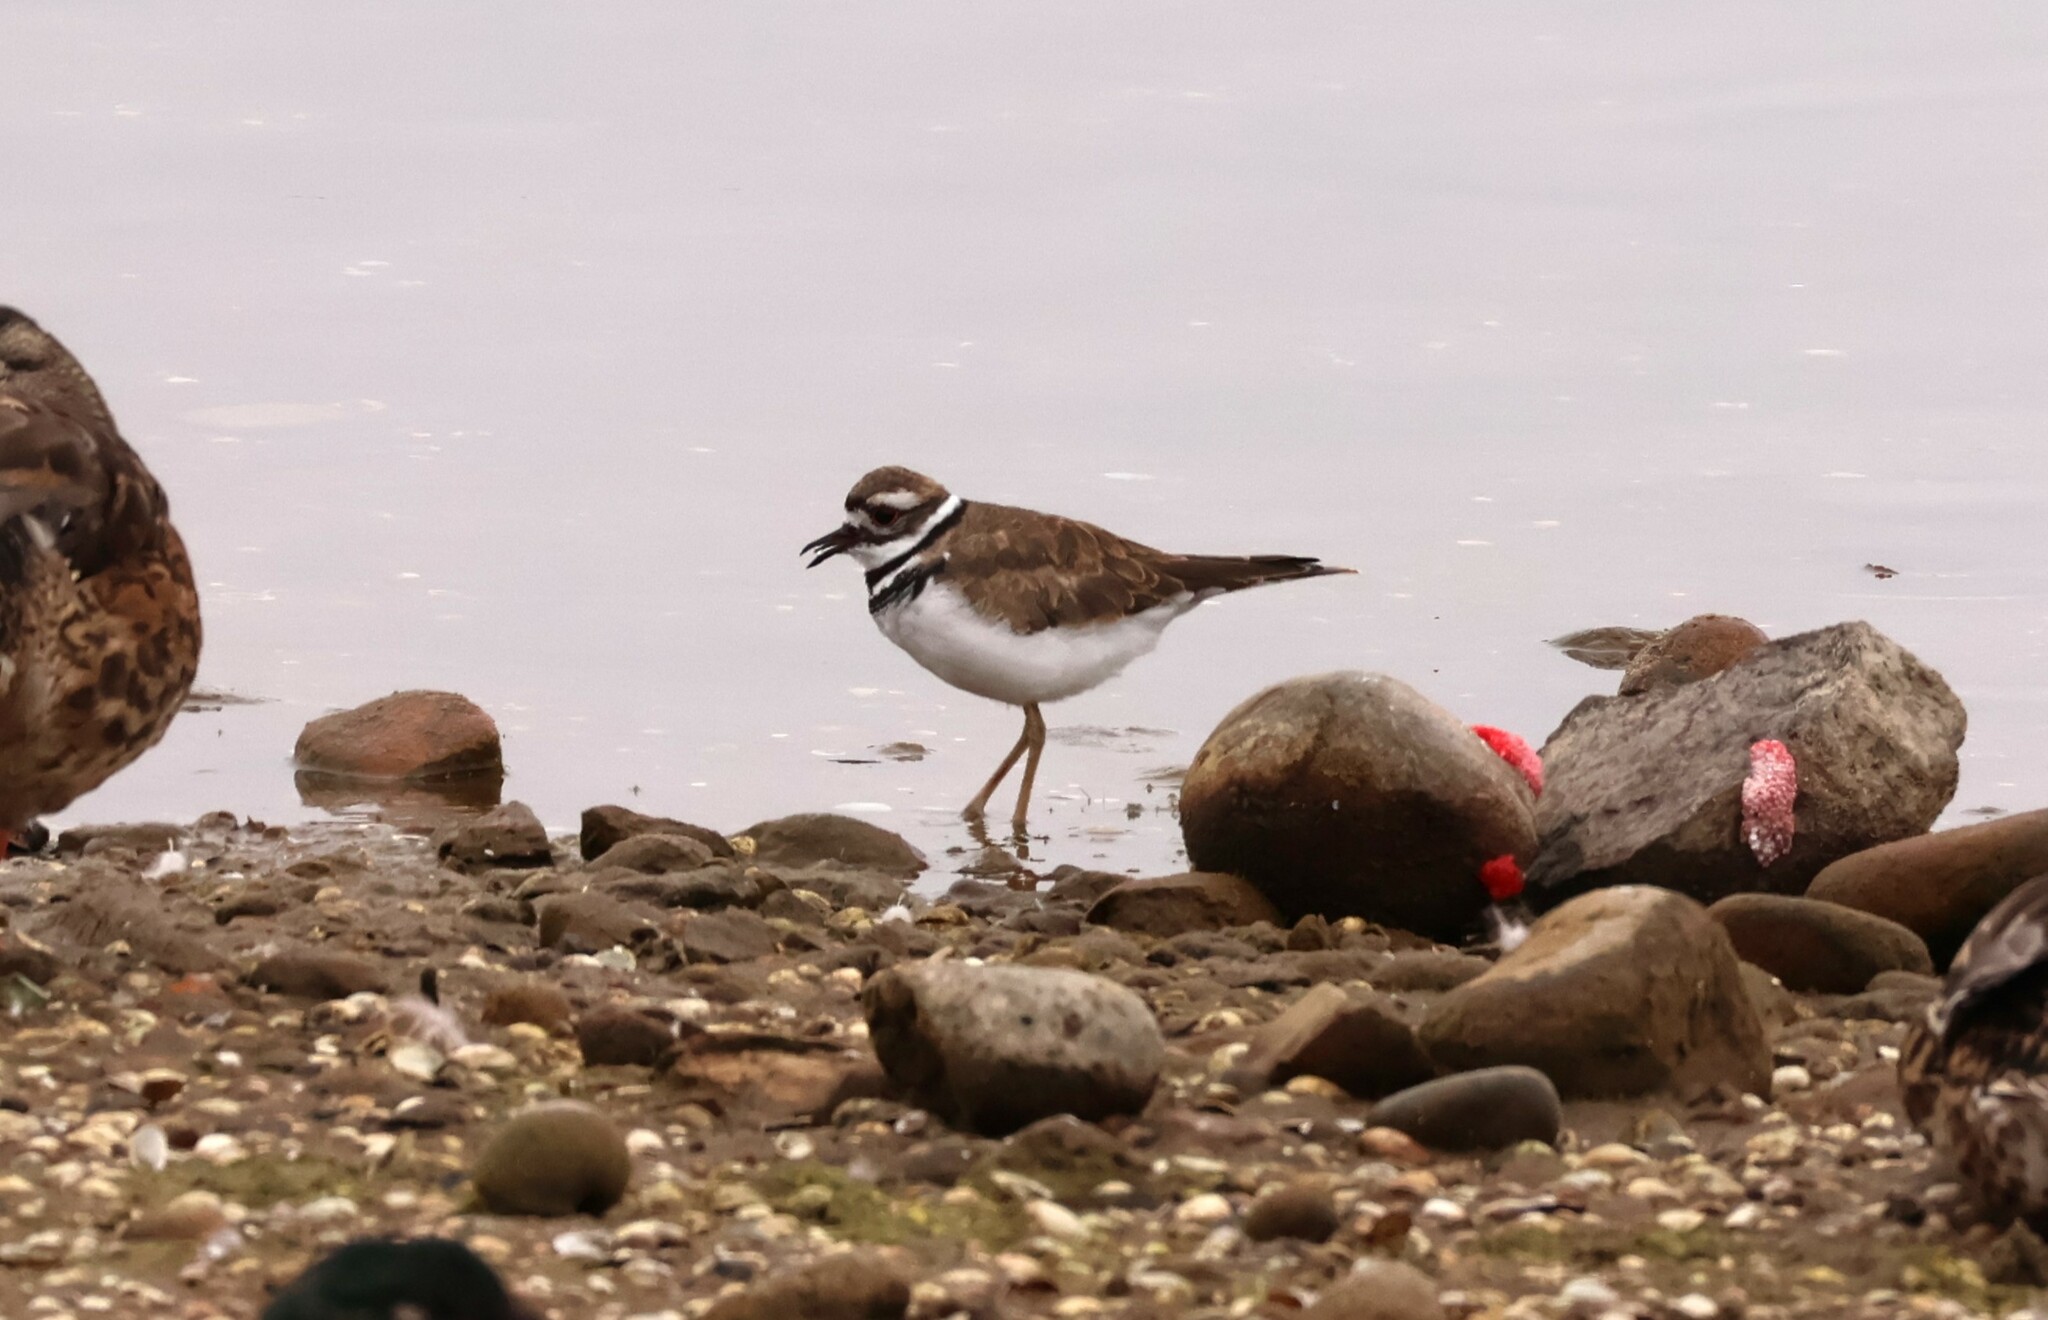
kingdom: Animalia
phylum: Chordata
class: Aves
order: Charadriiformes
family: Charadriidae
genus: Charadrius
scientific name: Charadrius vociferus
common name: Killdeer
